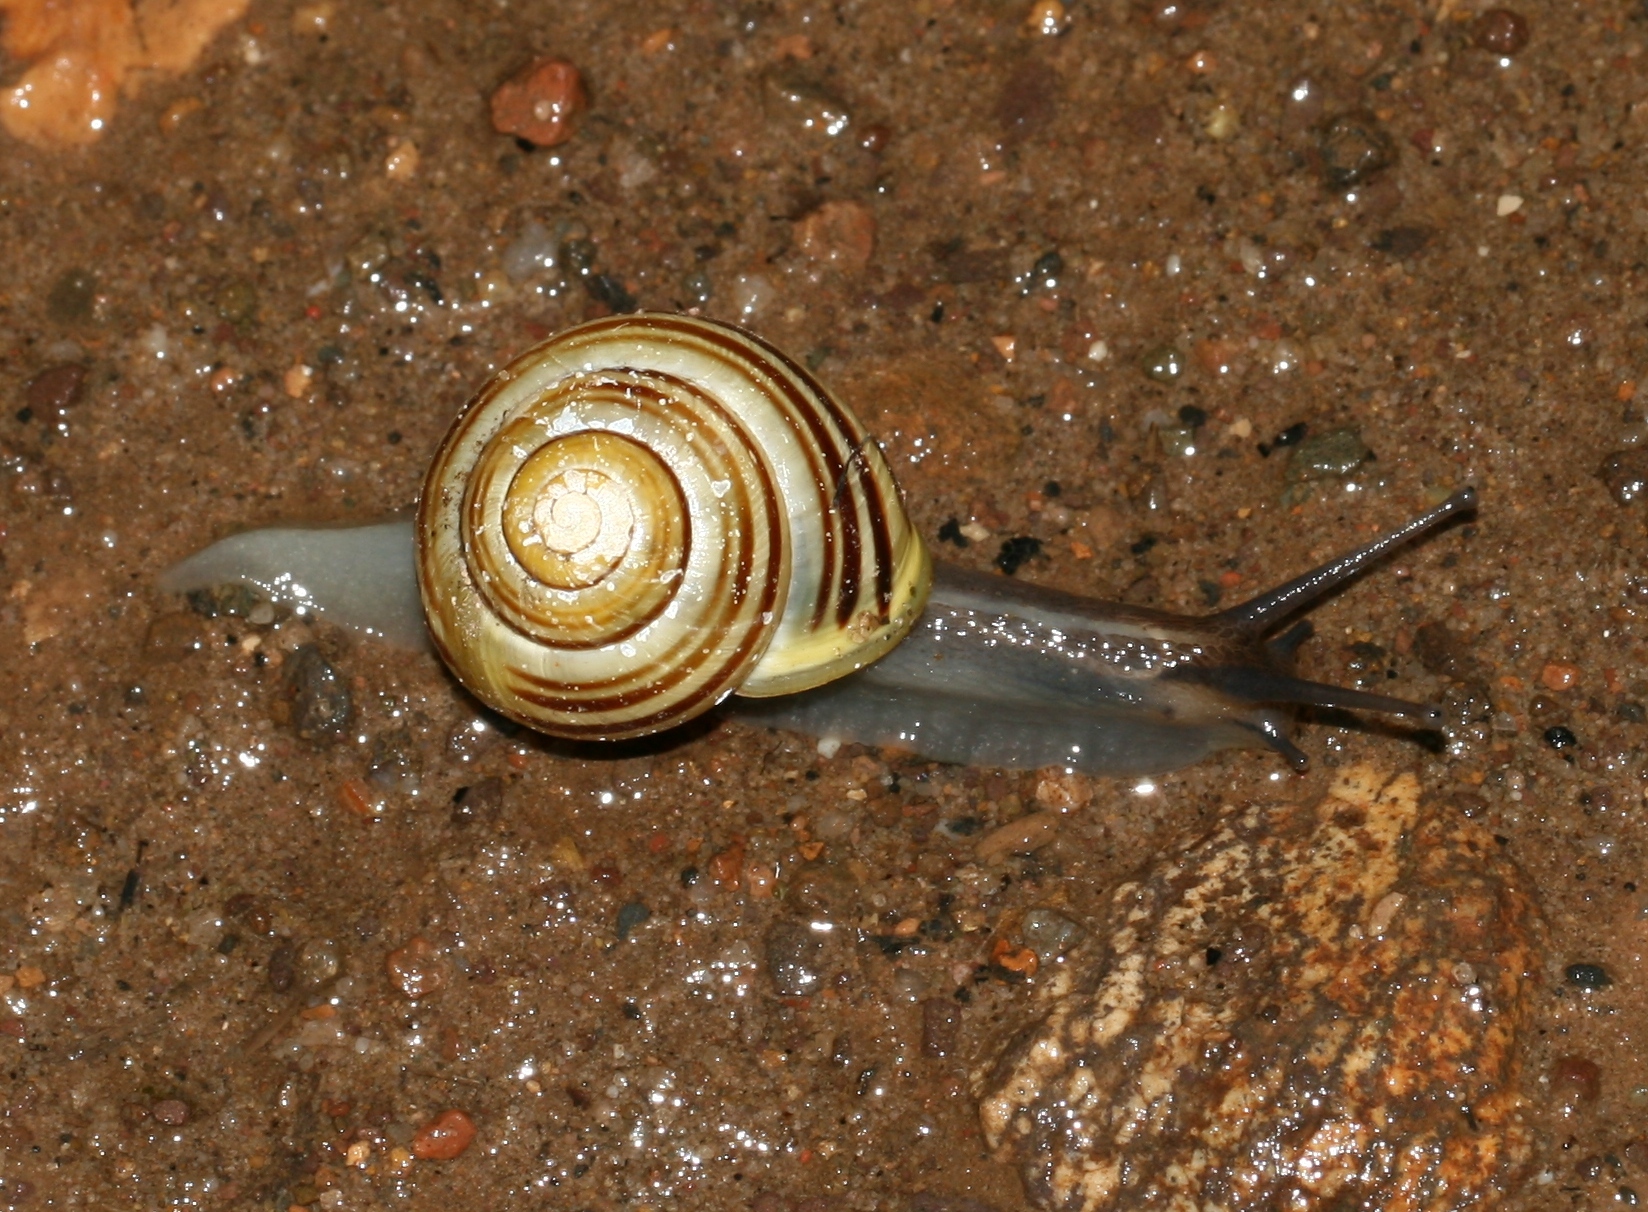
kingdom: Animalia
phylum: Mollusca
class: Gastropoda
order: Stylommatophora
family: Helicidae
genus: Cepaea
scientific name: Cepaea hortensis
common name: White-lip gardensnail
